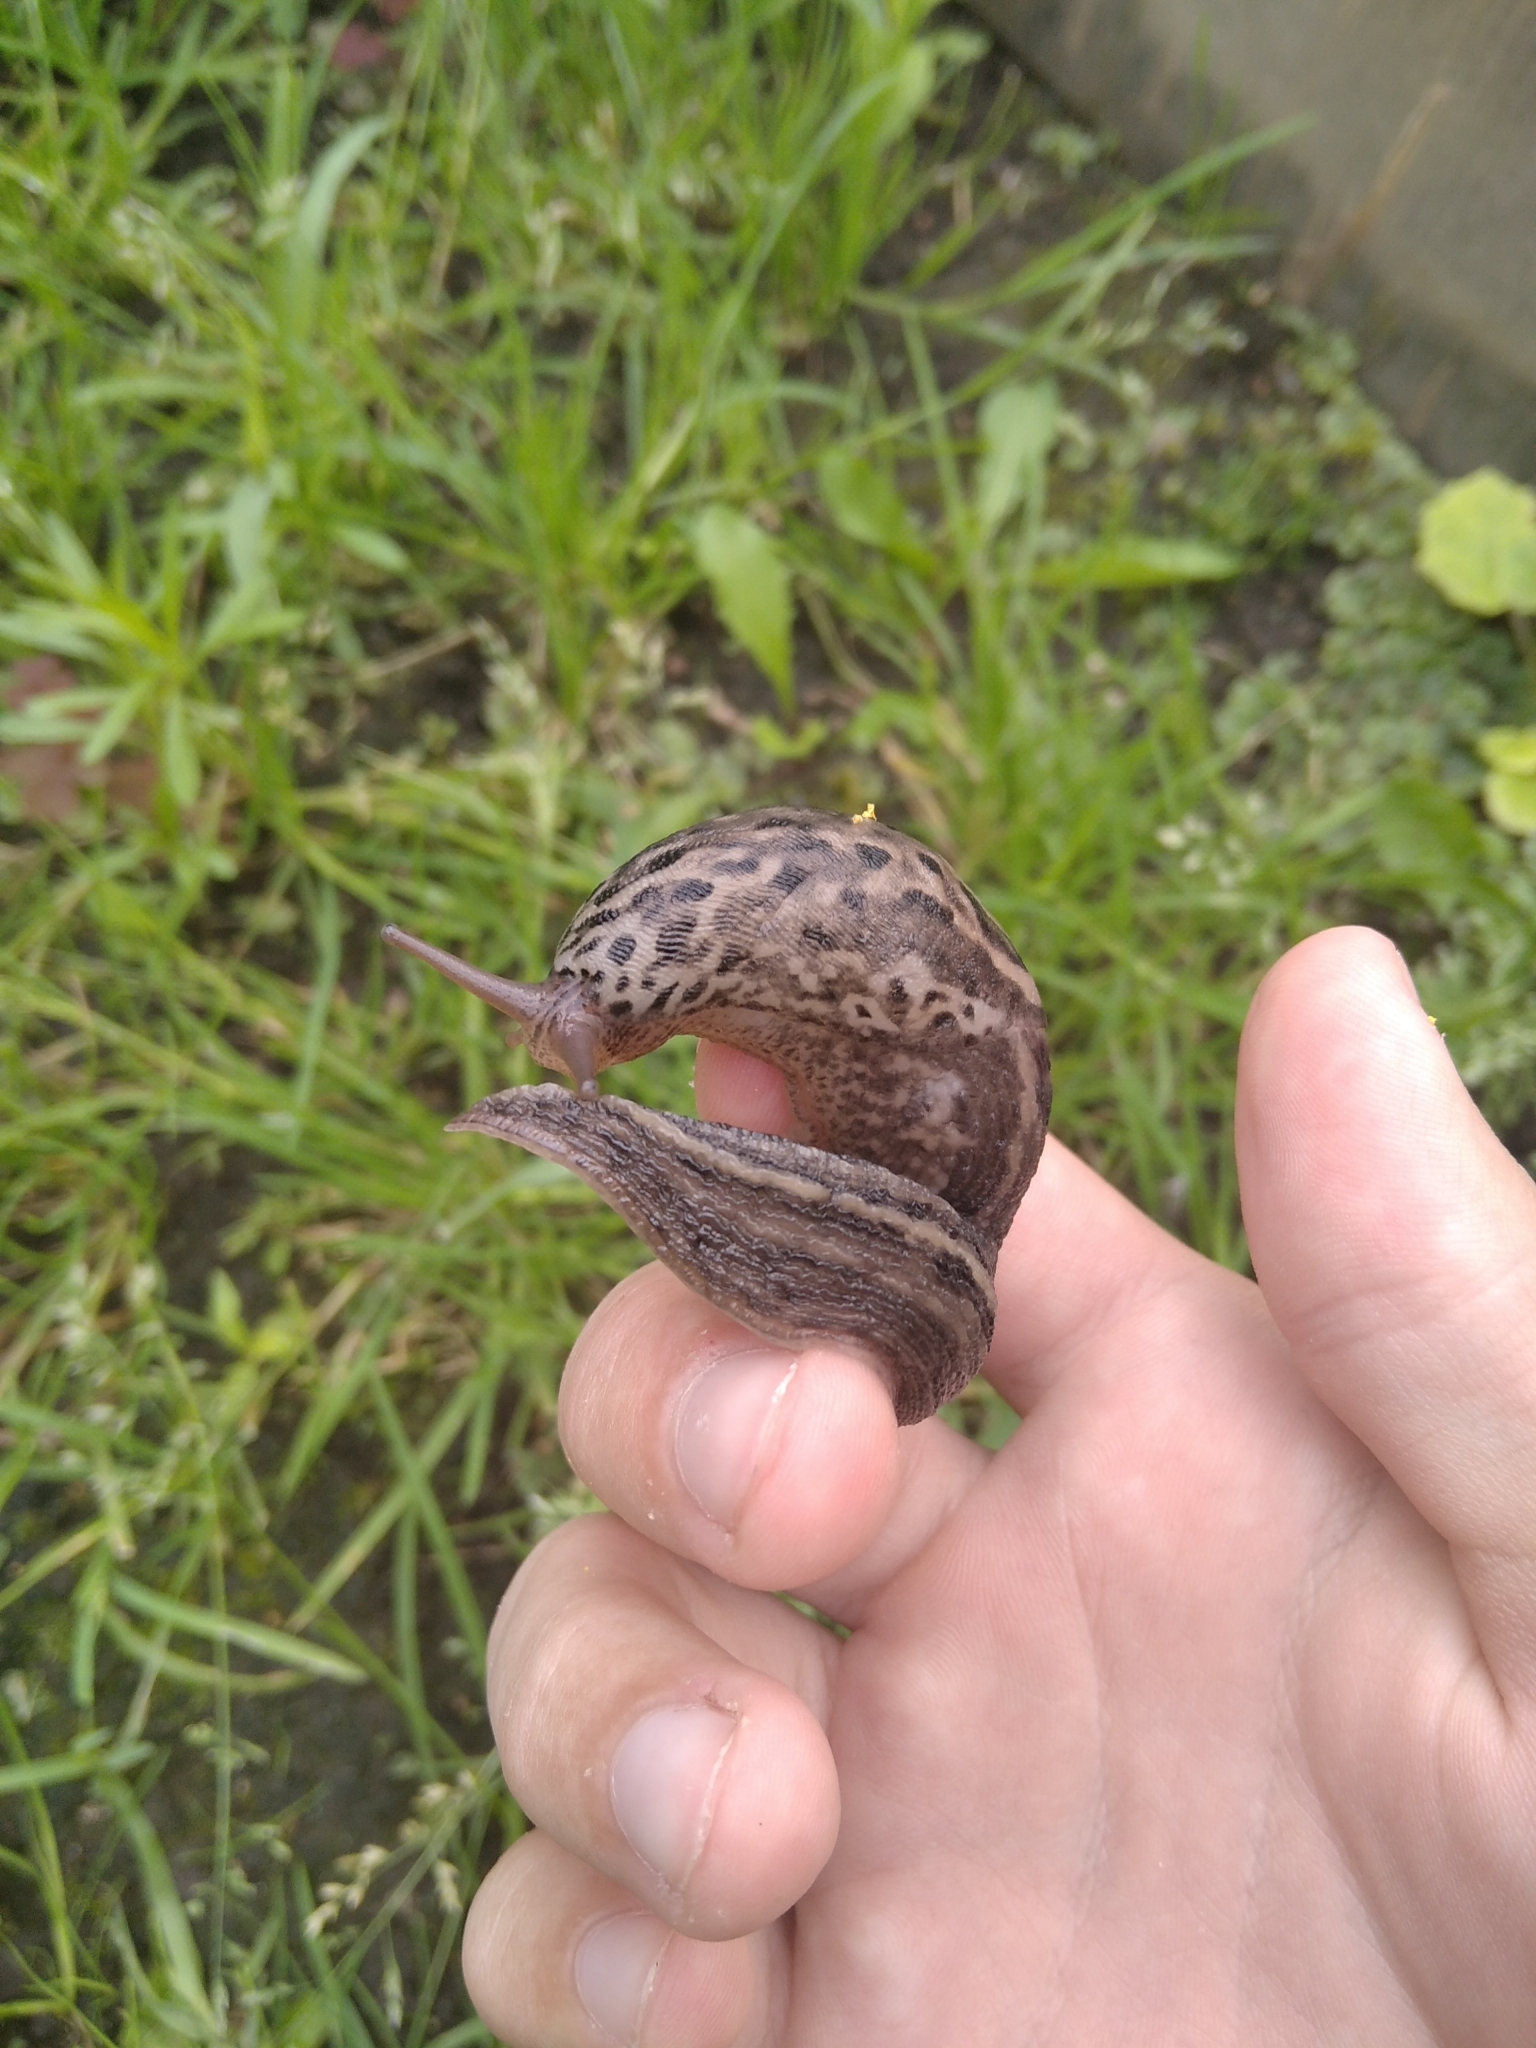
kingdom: Animalia
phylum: Mollusca
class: Gastropoda
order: Stylommatophora
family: Limacidae
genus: Limax
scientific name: Limax maximus
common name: Great grey slug
